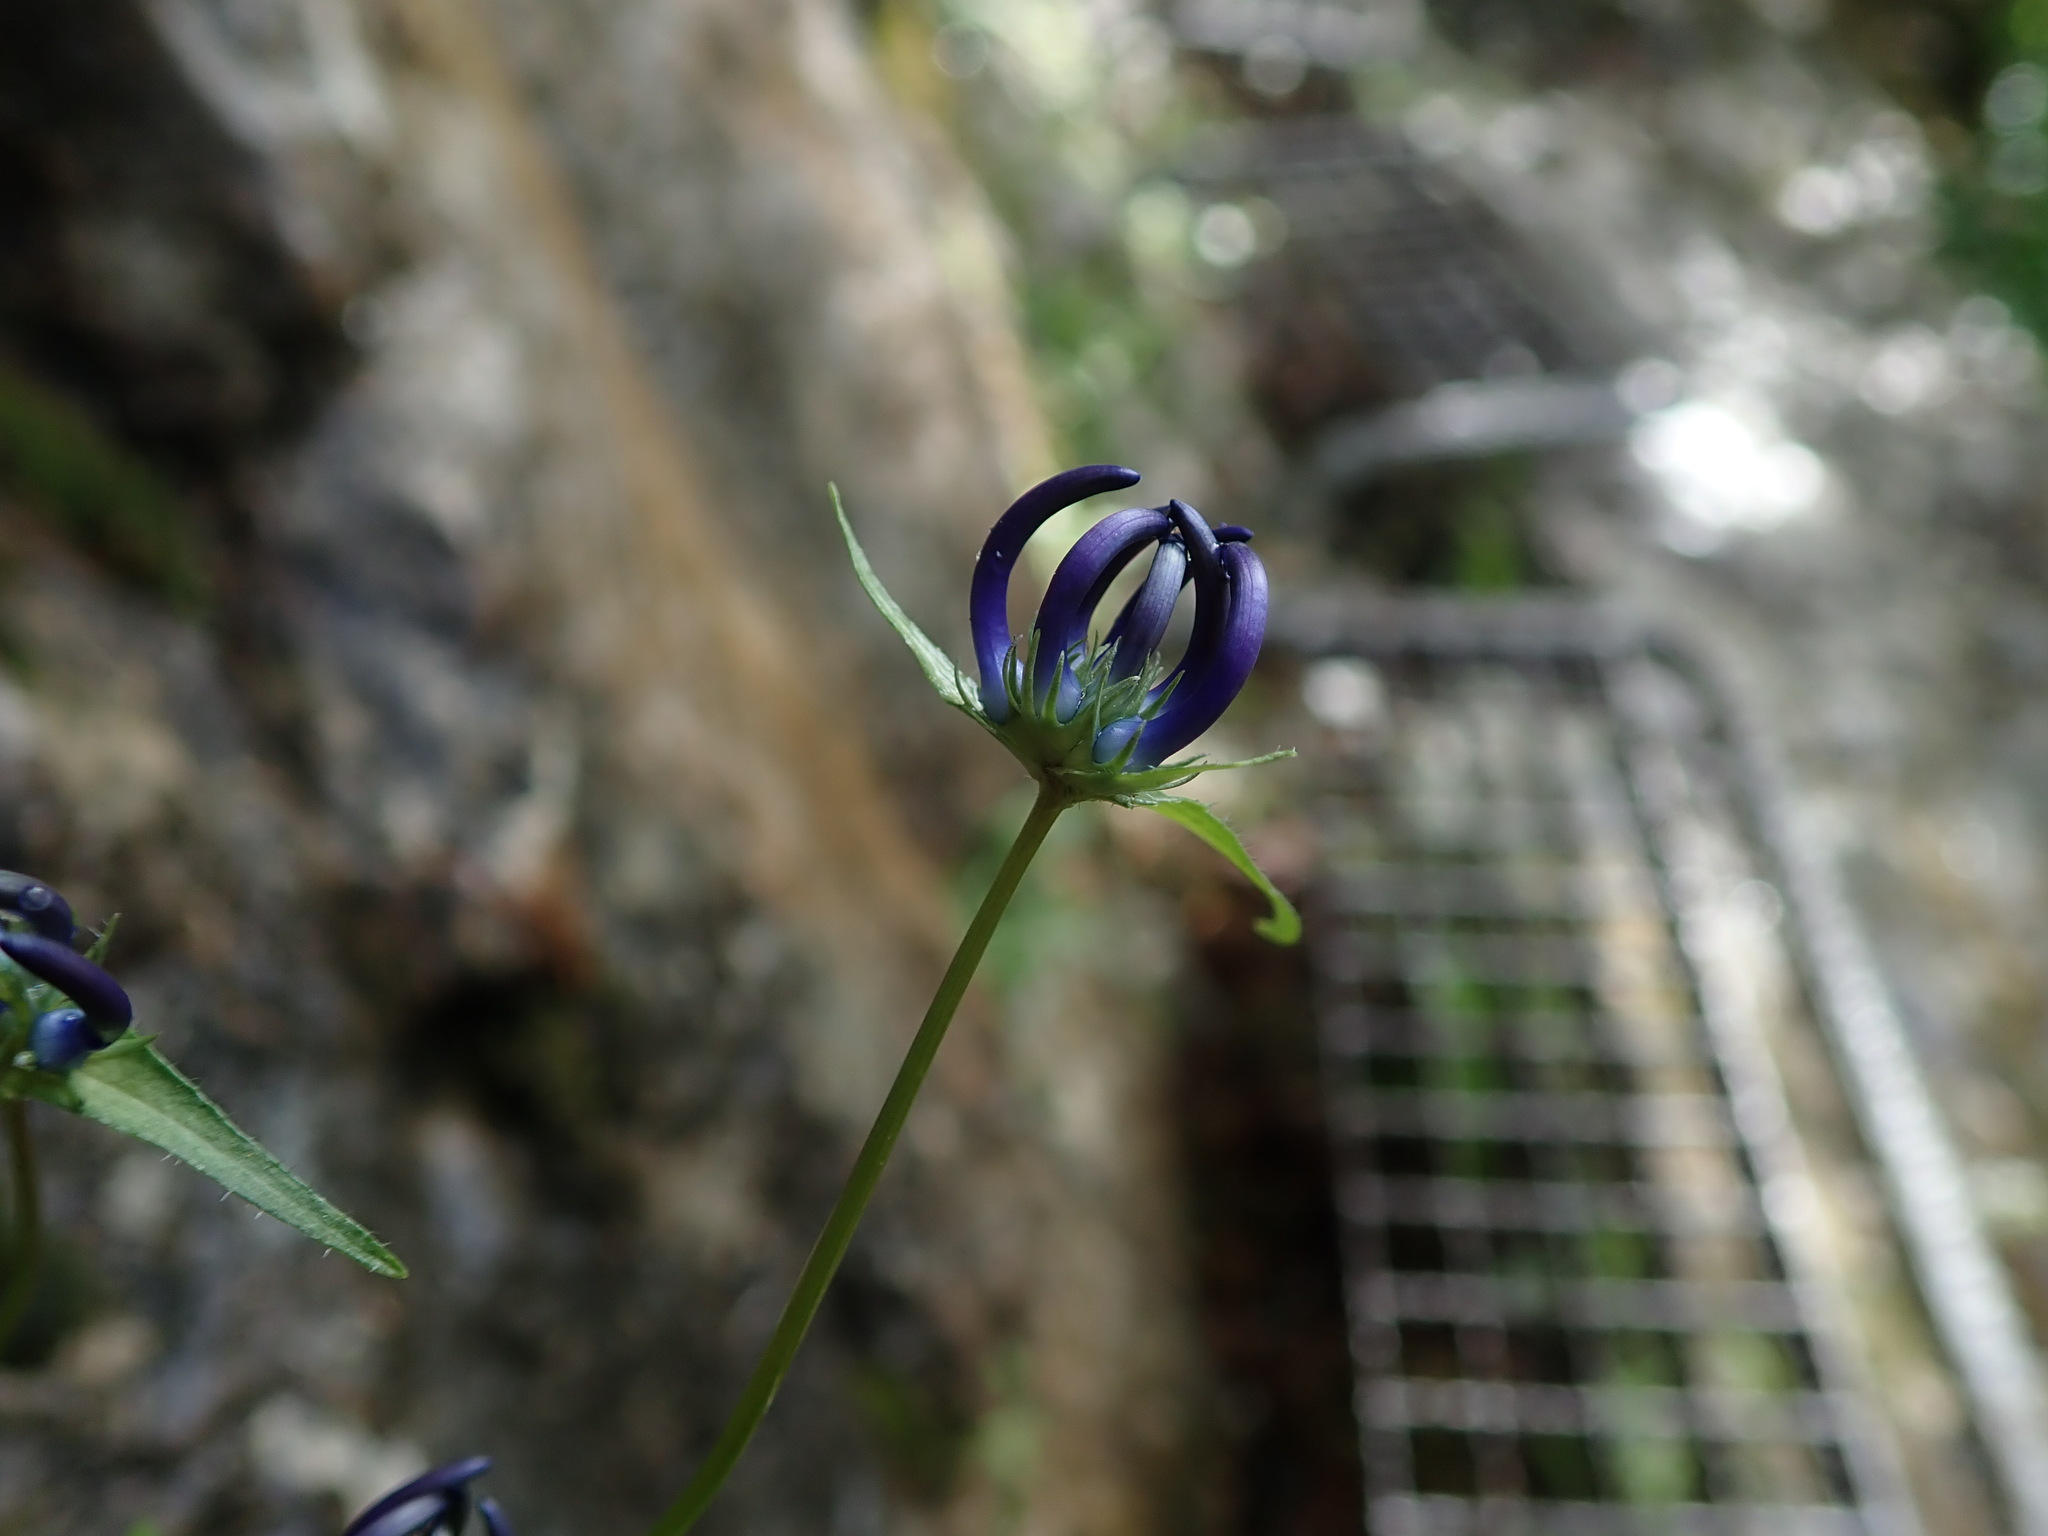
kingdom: Plantae
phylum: Tracheophyta
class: Magnoliopsida
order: Asterales
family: Campanulaceae
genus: Phyteuma
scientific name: Phyteuma orbiculare
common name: Round-headed rampion
